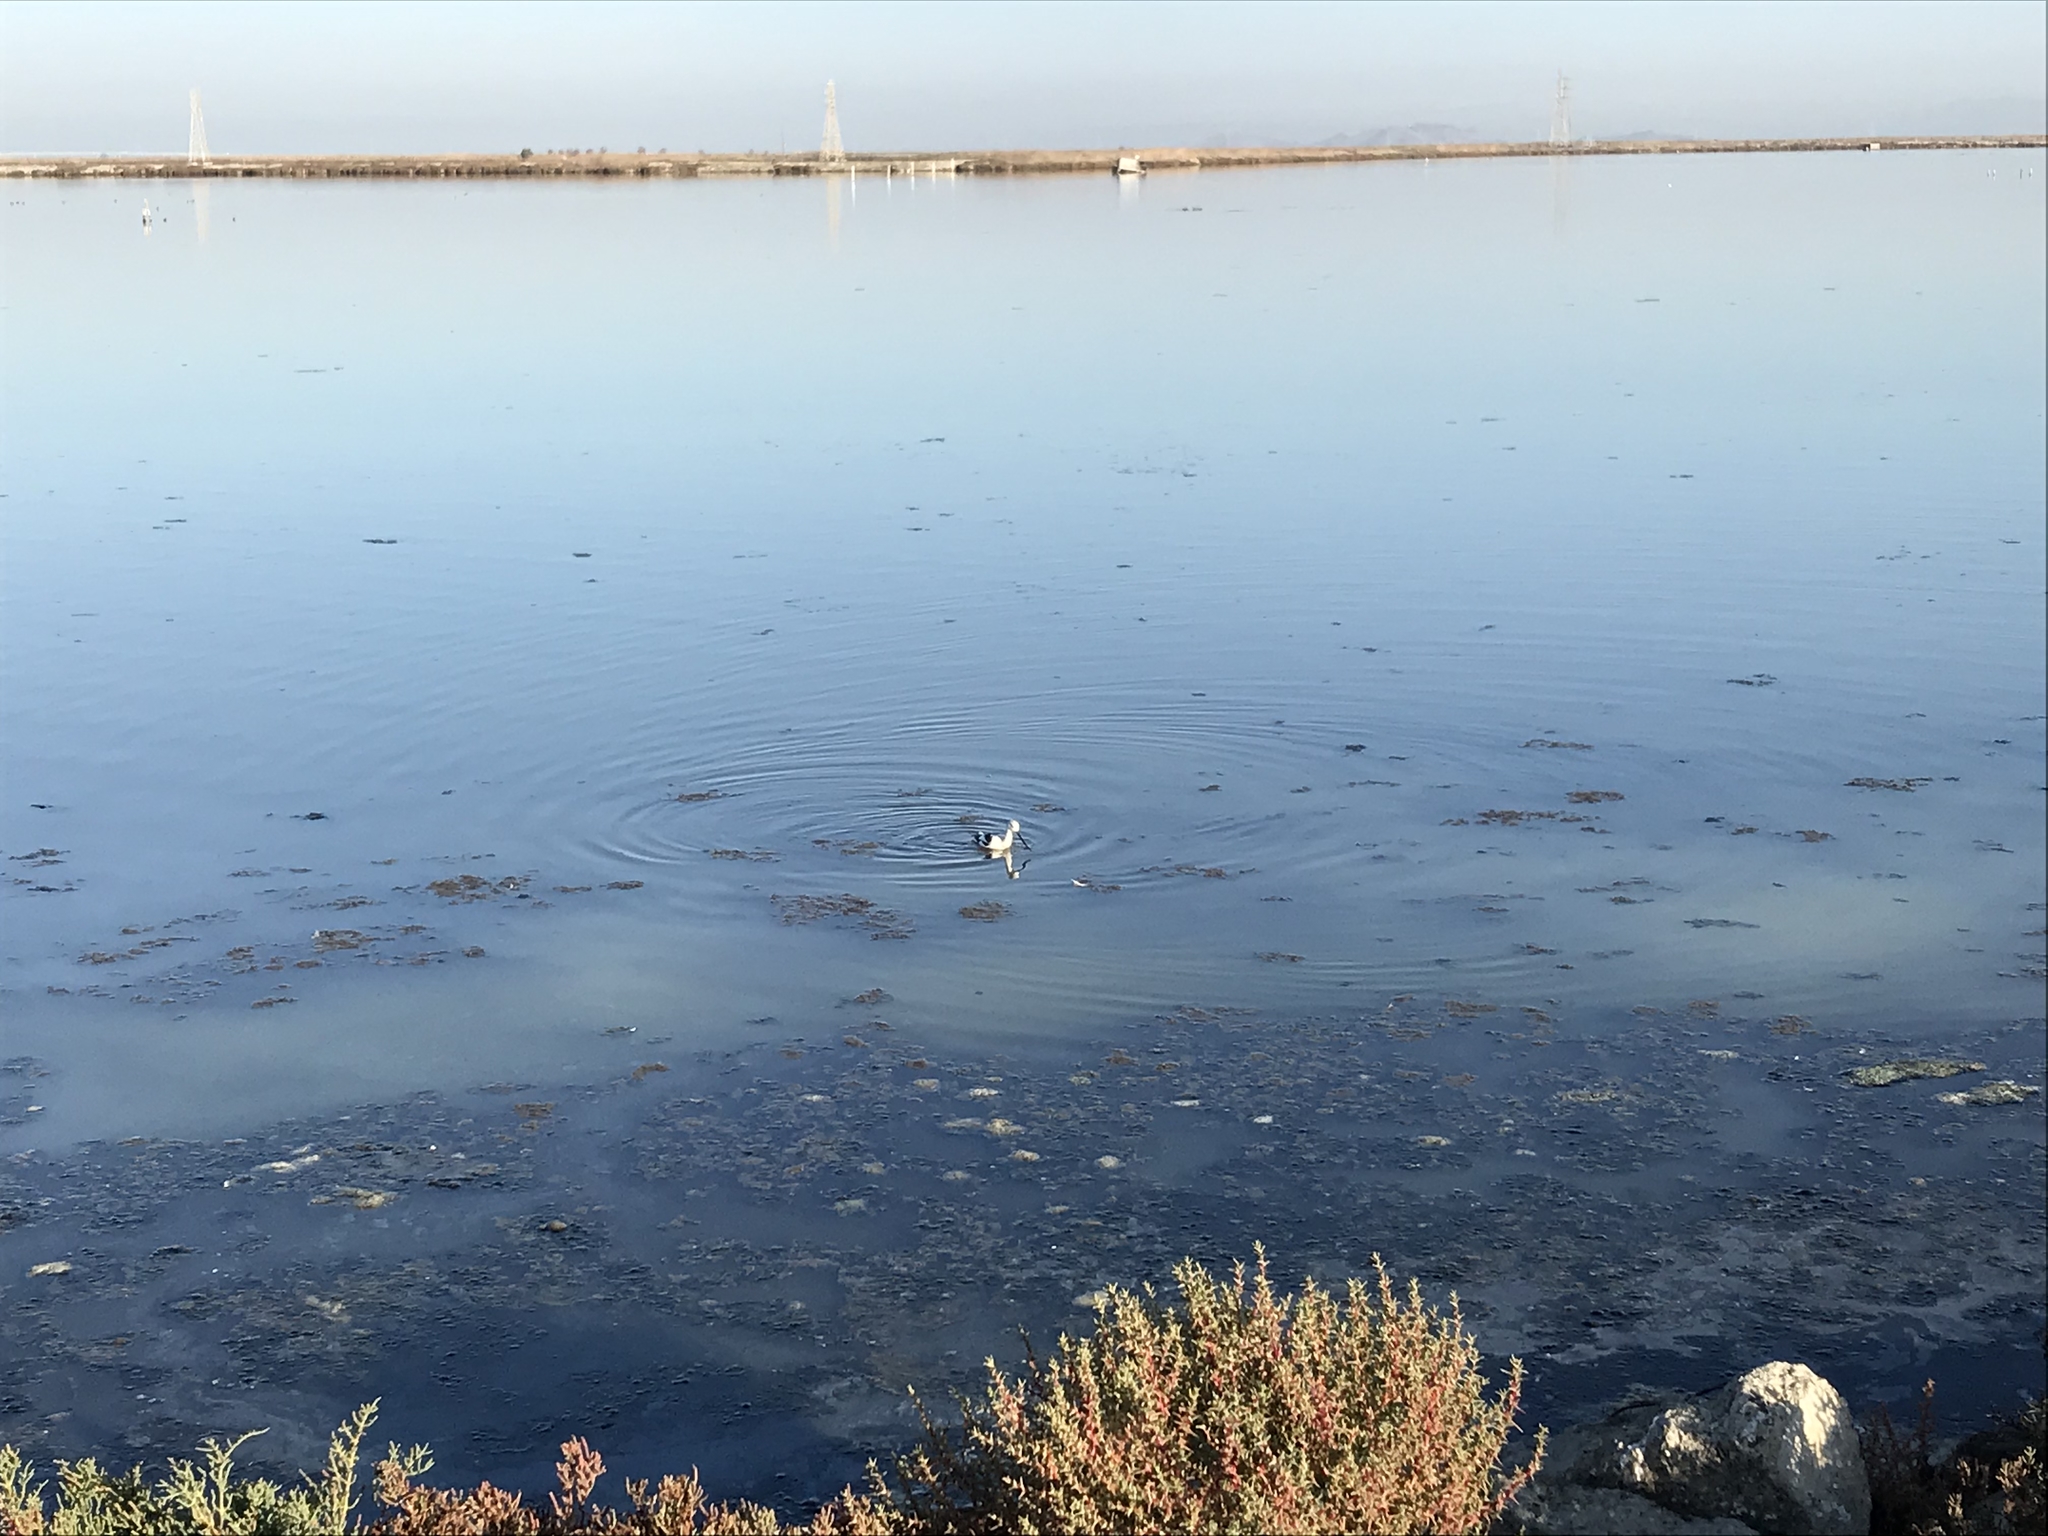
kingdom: Animalia
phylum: Chordata
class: Aves
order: Charadriiformes
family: Recurvirostridae
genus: Recurvirostra
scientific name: Recurvirostra americana
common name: American avocet
